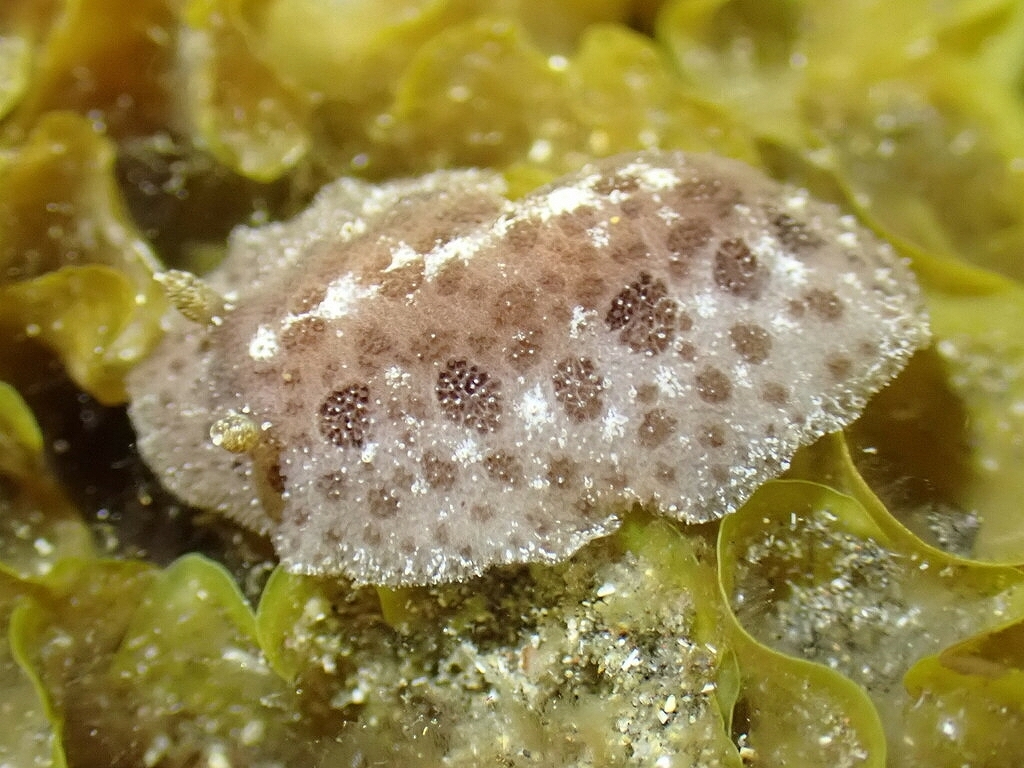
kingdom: Animalia
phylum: Mollusca
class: Gastropoda
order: Nudibranchia
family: Discodorididae
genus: Tayuva
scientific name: Tayuva lilacina
